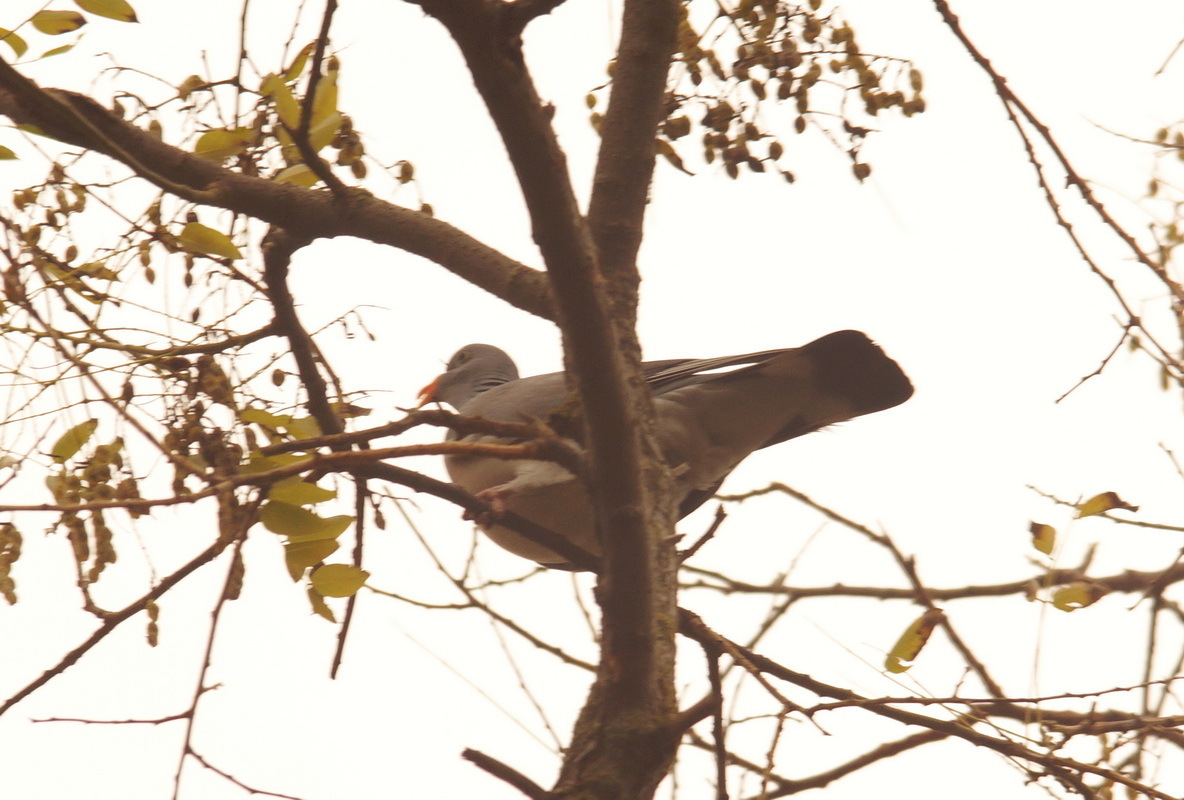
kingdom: Animalia
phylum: Chordata
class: Aves
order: Columbiformes
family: Columbidae
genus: Columba
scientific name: Columba palumbus
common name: Common wood pigeon
